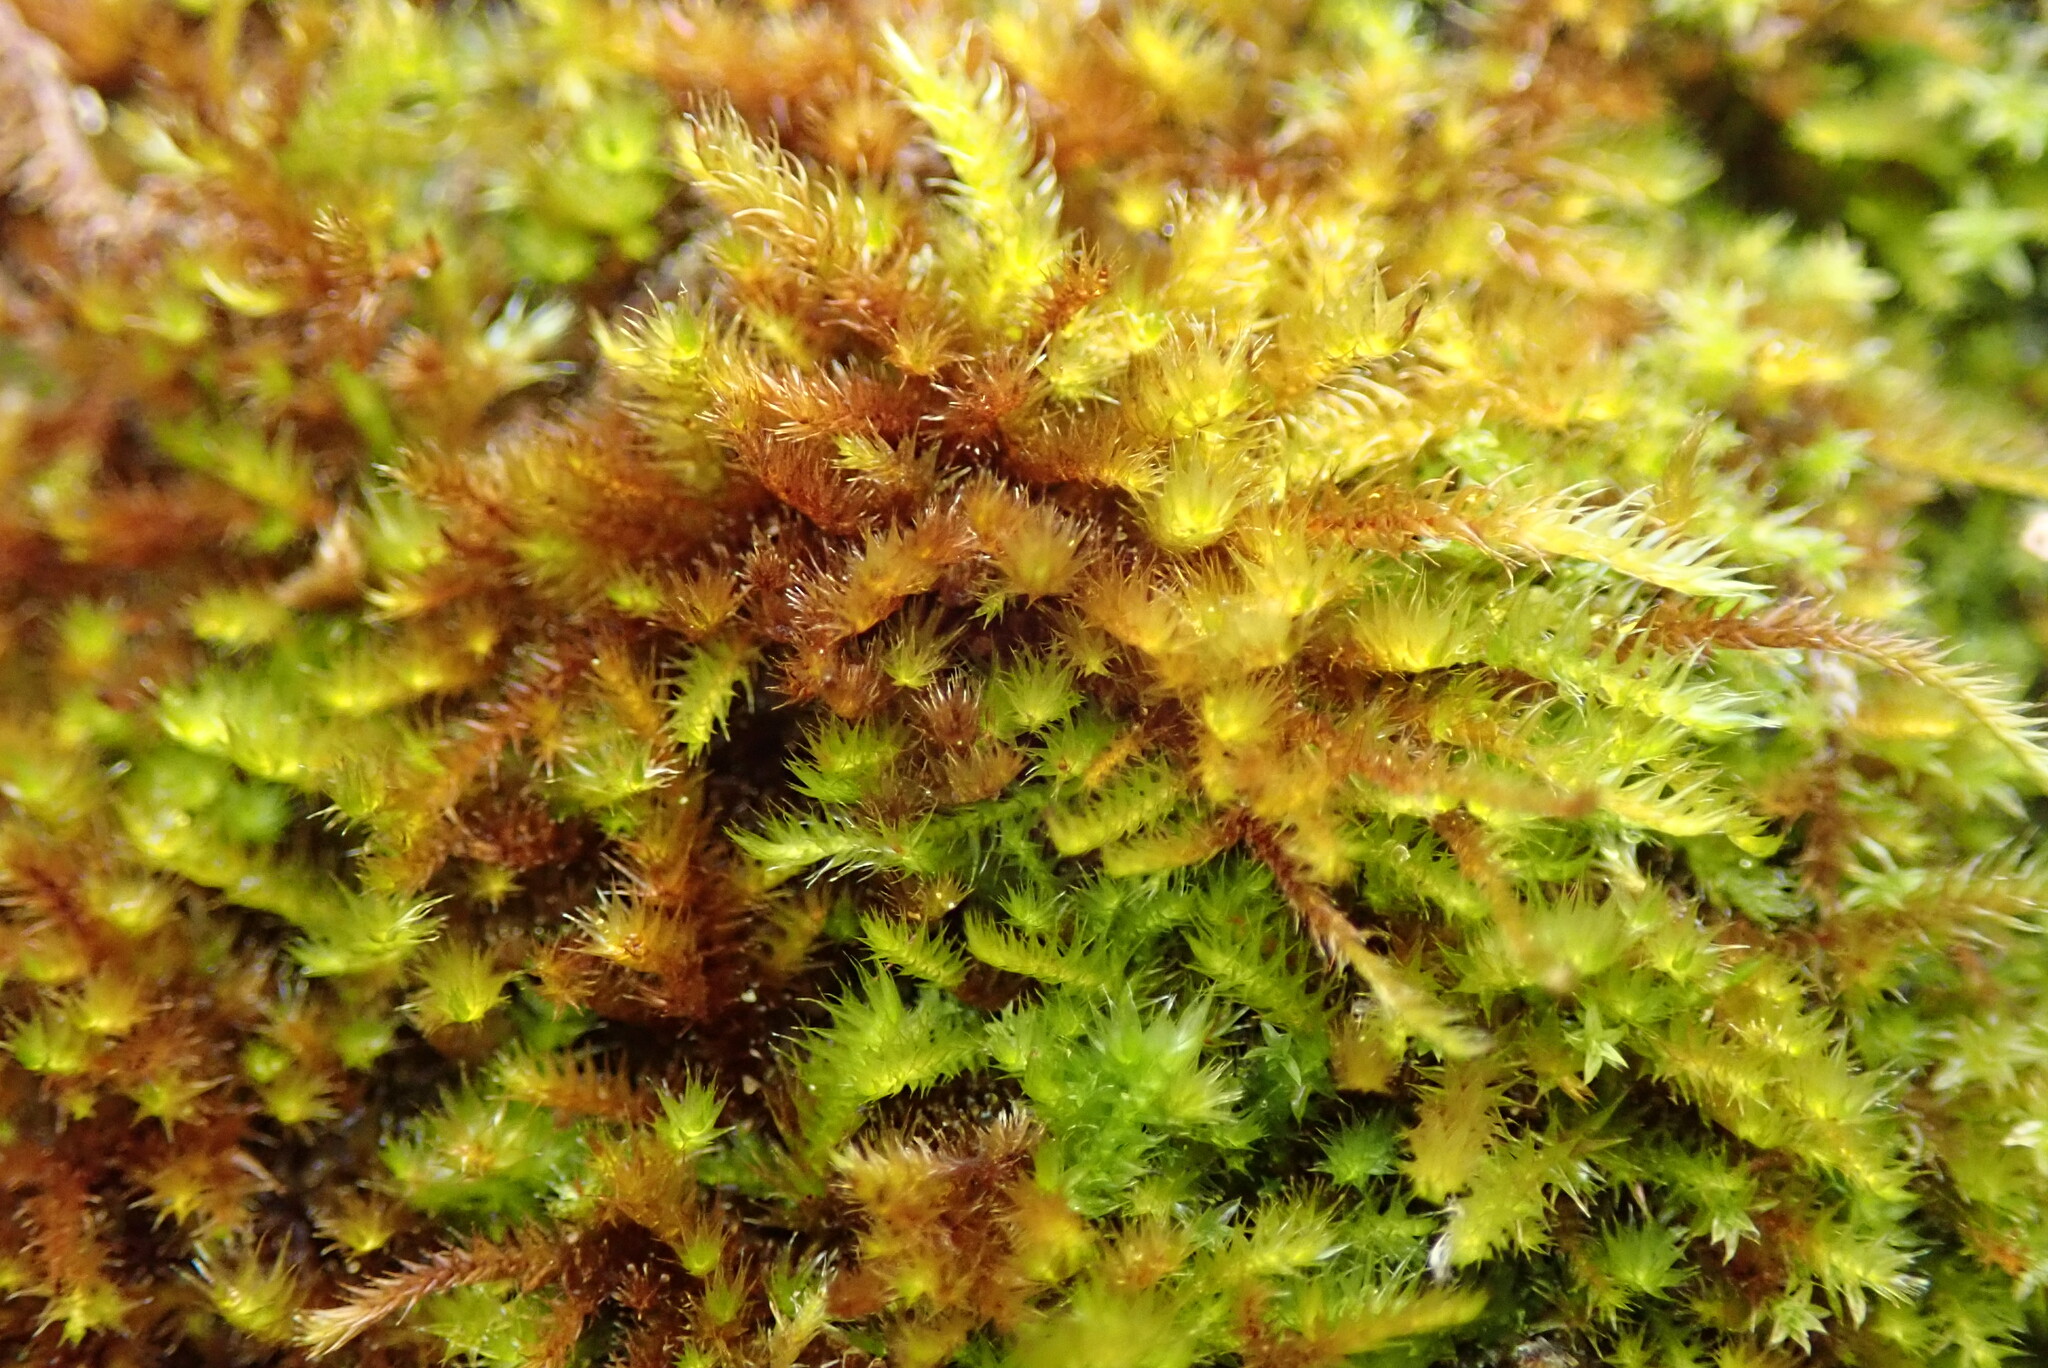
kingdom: Plantae
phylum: Bryophyta
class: Bryopsida
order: Hypnales
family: Hypnaceae
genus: Hypnum
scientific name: Hypnum resupinatum
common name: Supine plait-moss
